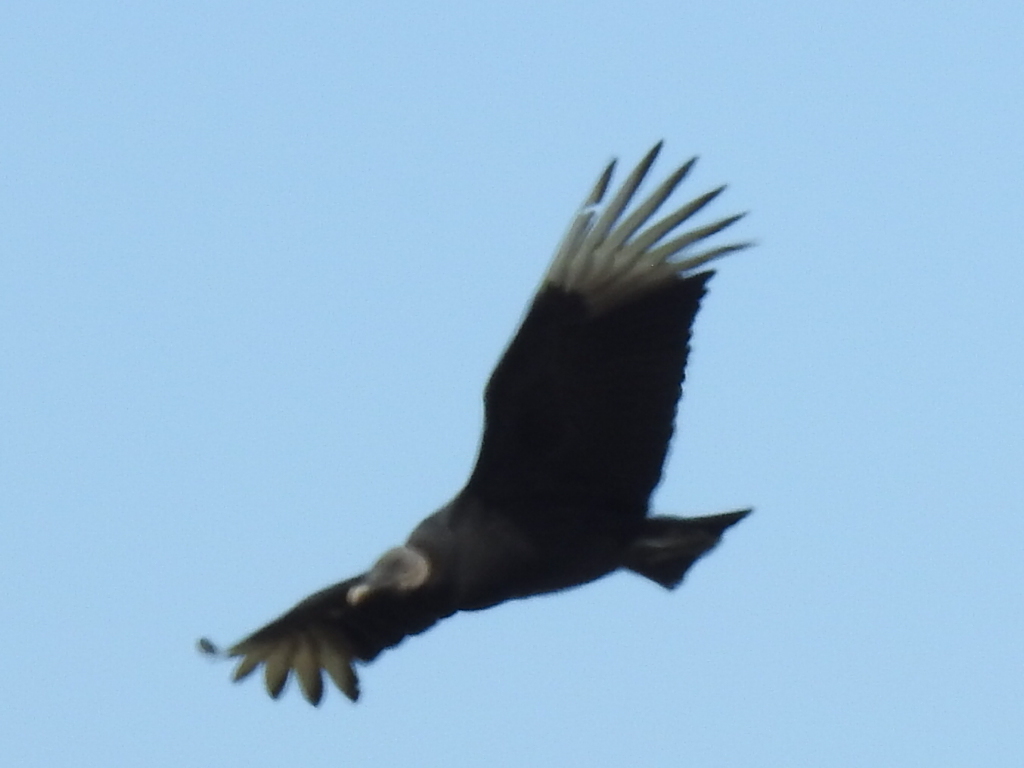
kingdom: Animalia
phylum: Chordata
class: Aves
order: Accipitriformes
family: Cathartidae
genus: Coragyps
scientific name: Coragyps atratus
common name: Black vulture
